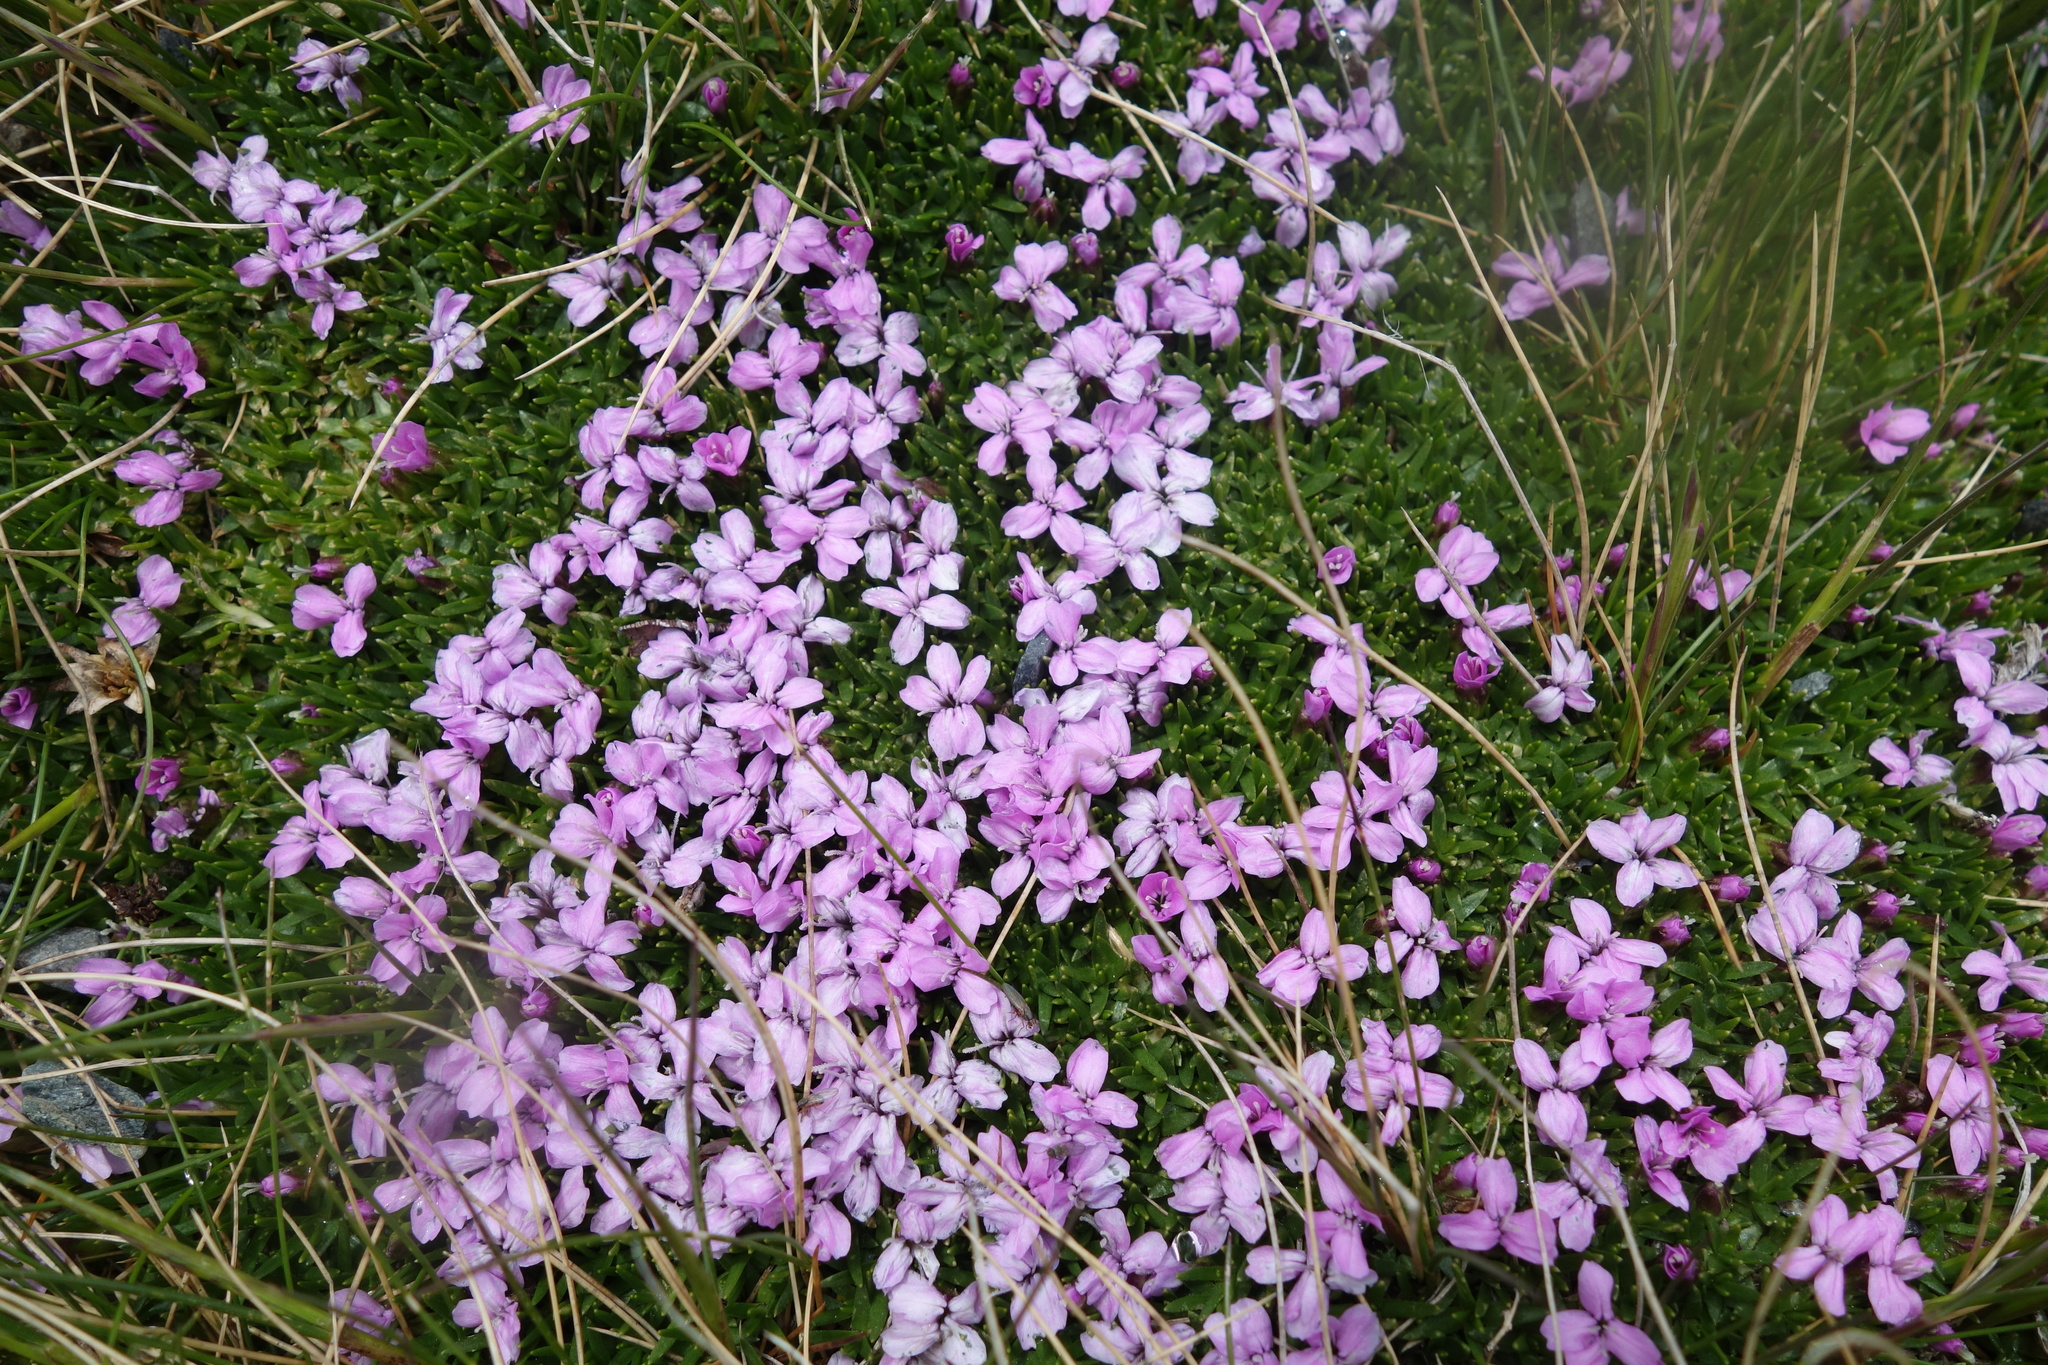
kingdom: Plantae
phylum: Tracheophyta
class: Magnoliopsida
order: Caryophyllales
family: Caryophyllaceae
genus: Silene
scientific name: Silene acaulis
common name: Moss campion
